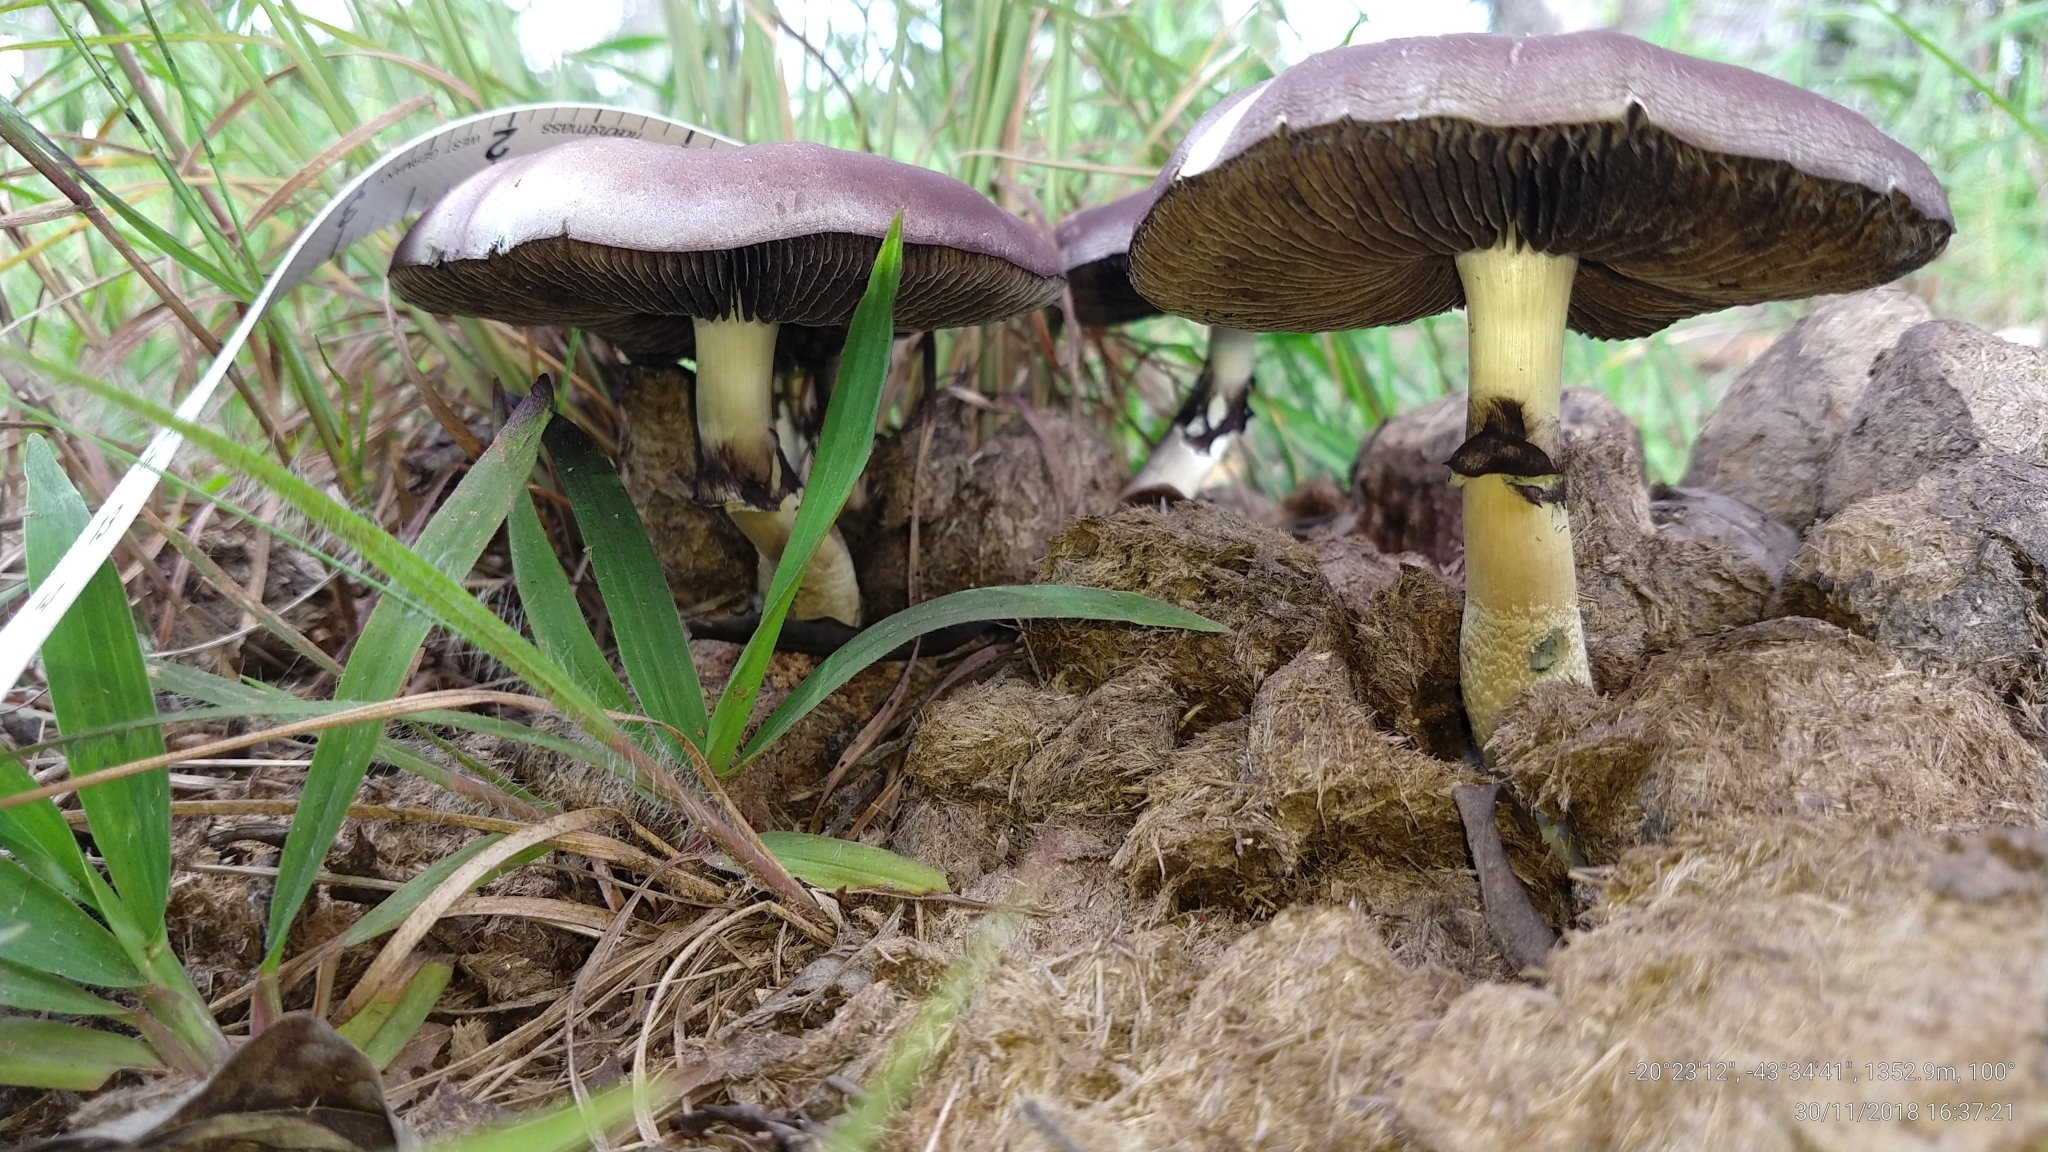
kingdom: Fungi
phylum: Basidiomycota
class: Agaricomycetes
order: Agaricales
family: Hymenogastraceae
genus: Psilocybe
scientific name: Psilocybe cubensis
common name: Golden brownie
